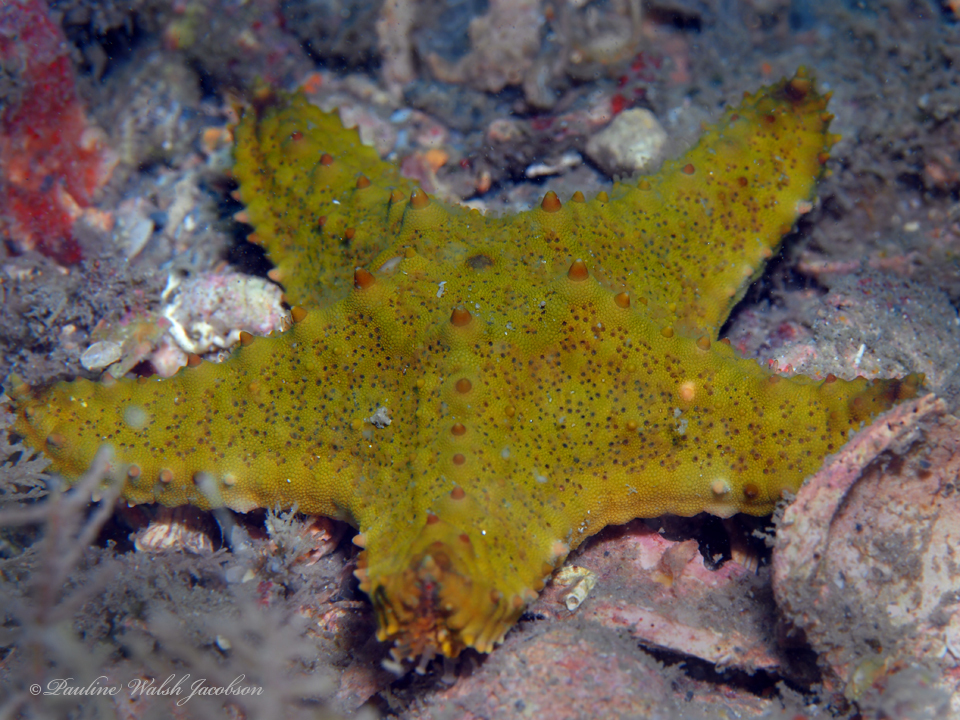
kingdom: Animalia
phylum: Echinodermata
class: Asteroidea
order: Valvatida
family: Oreasteridae
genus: Oreaster
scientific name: Oreaster reticulatus
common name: Cushion sea star
